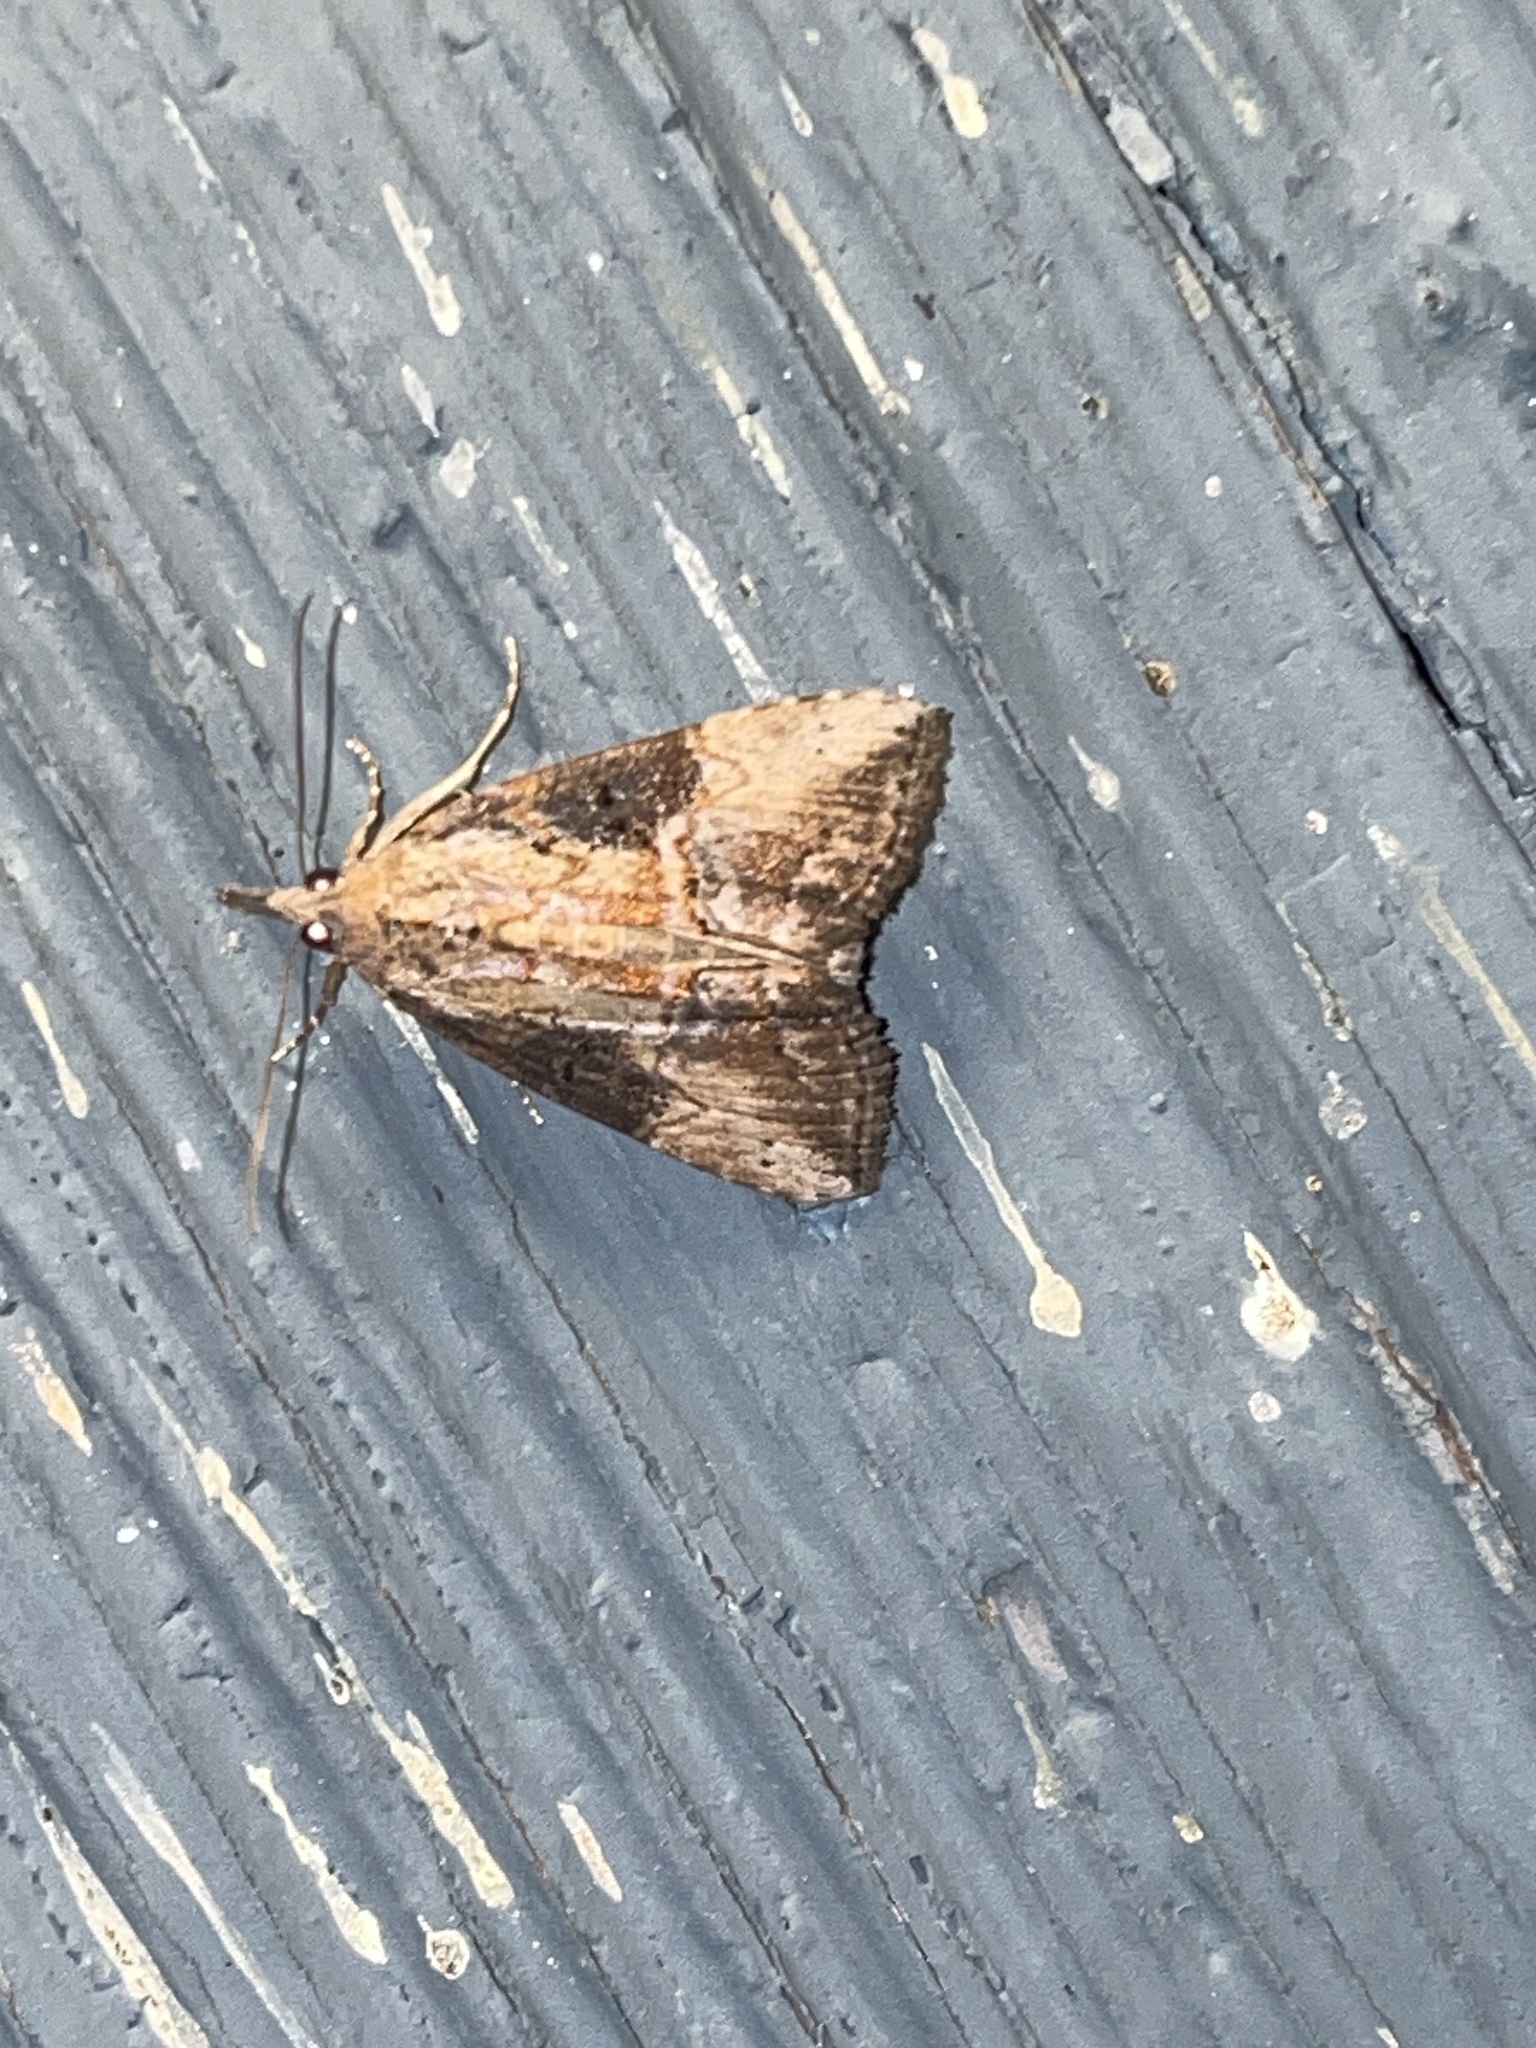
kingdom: Animalia
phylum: Arthropoda
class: Insecta
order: Lepidoptera
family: Erebidae
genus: Hypena
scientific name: Hypena scabra
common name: Green cloverworm
